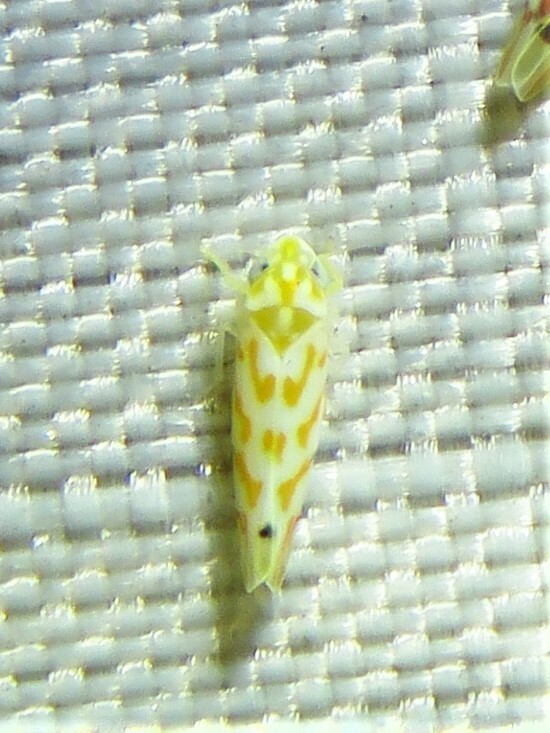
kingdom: Animalia
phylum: Arthropoda
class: Insecta
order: Hemiptera
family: Cicadellidae
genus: Eratoneura
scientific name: Eratoneura acantha
